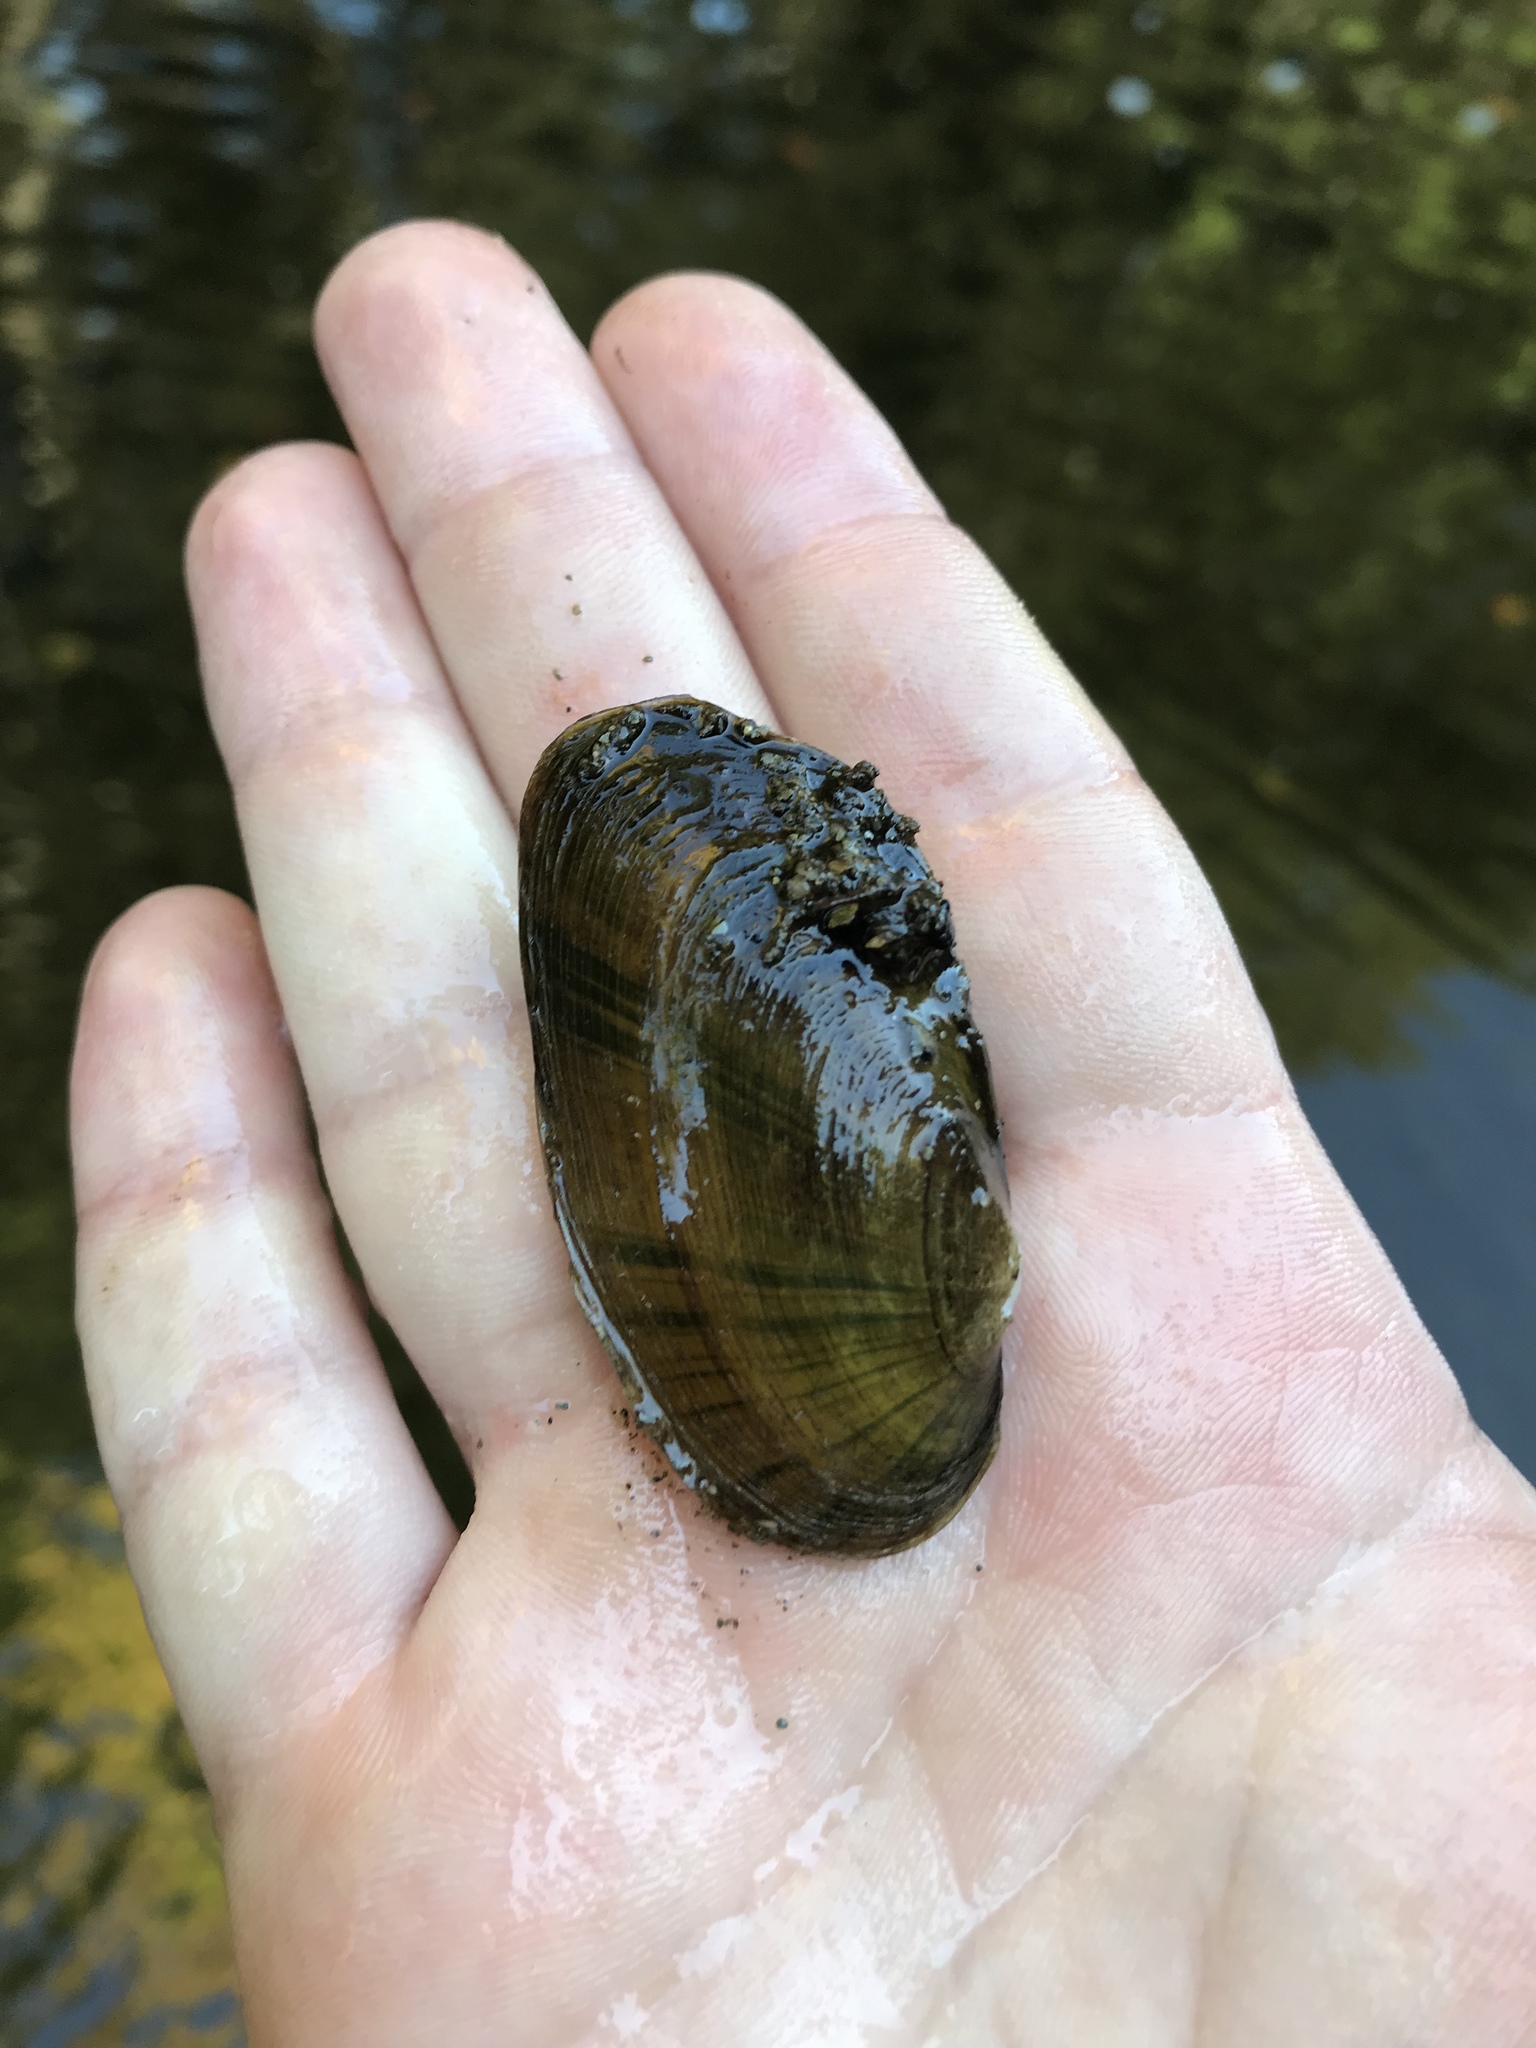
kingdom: Animalia
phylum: Mollusca
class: Bivalvia
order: Unionida
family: Unionidae
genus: Elliptio
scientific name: Elliptio complanata
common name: Eastern elliptio
